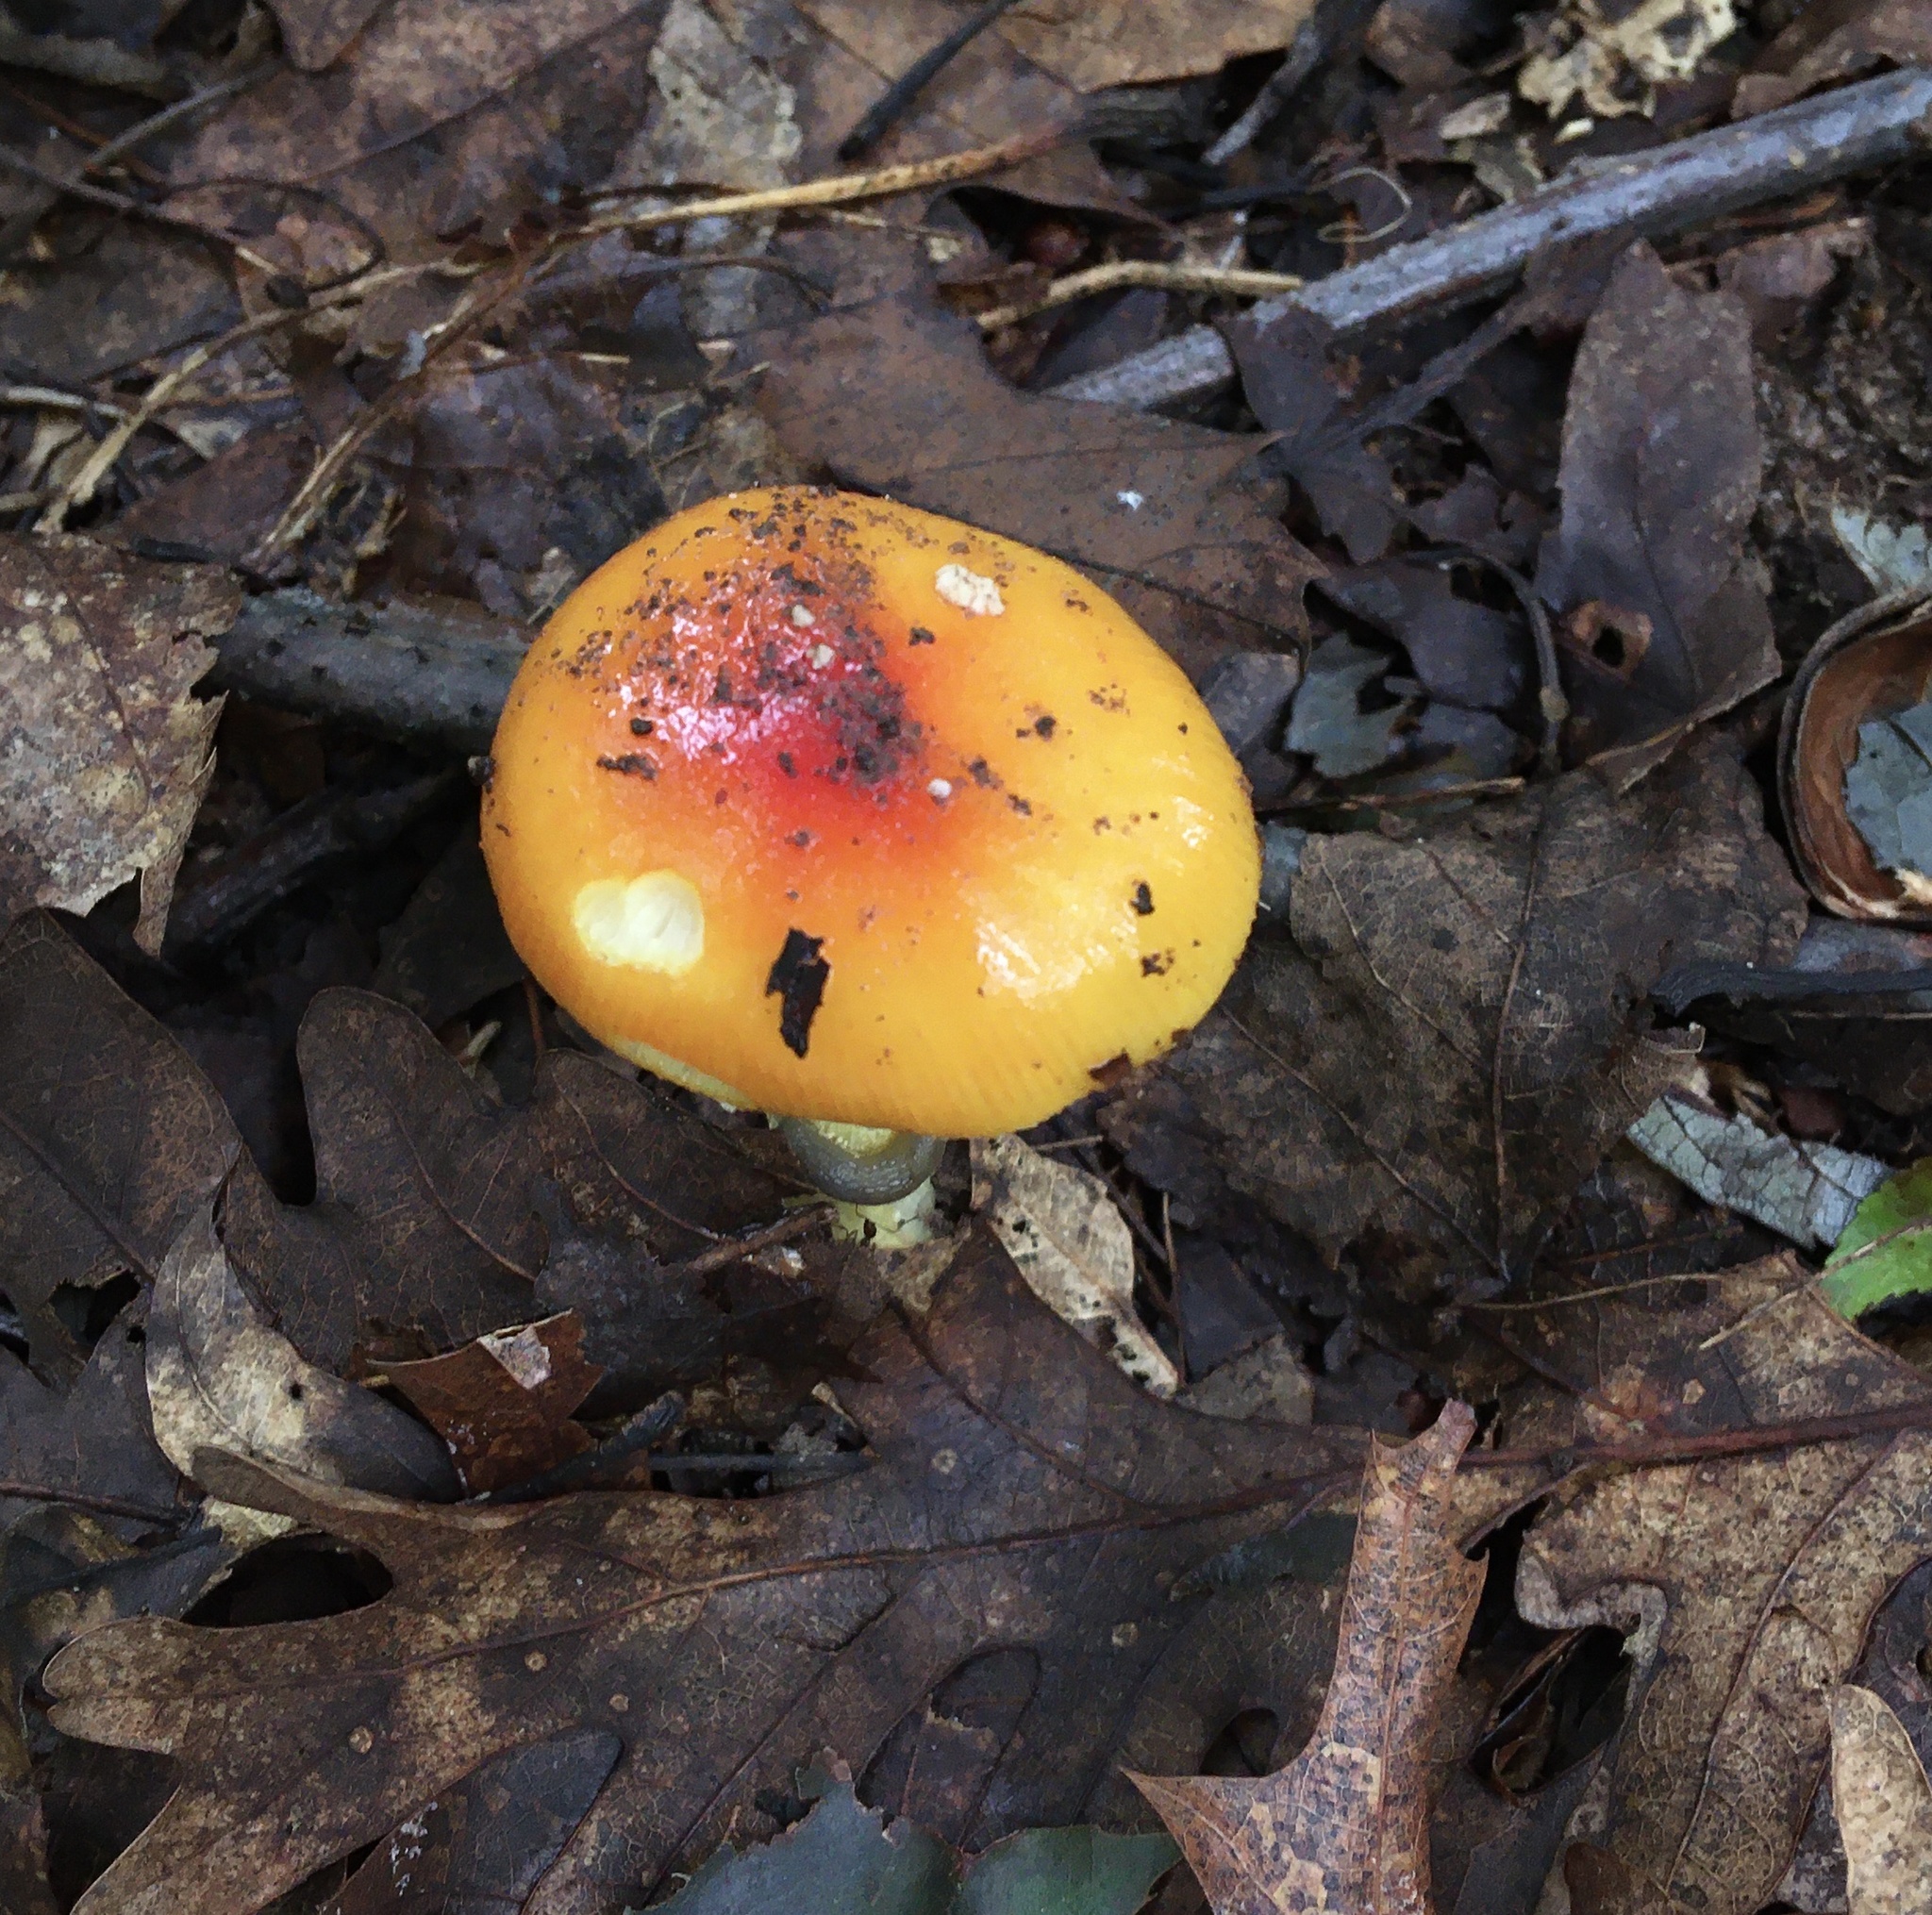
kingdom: Fungi
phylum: Basidiomycota
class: Agaricomycetes
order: Agaricales
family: Amanitaceae
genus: Amanita
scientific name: Amanita parcivolvata
